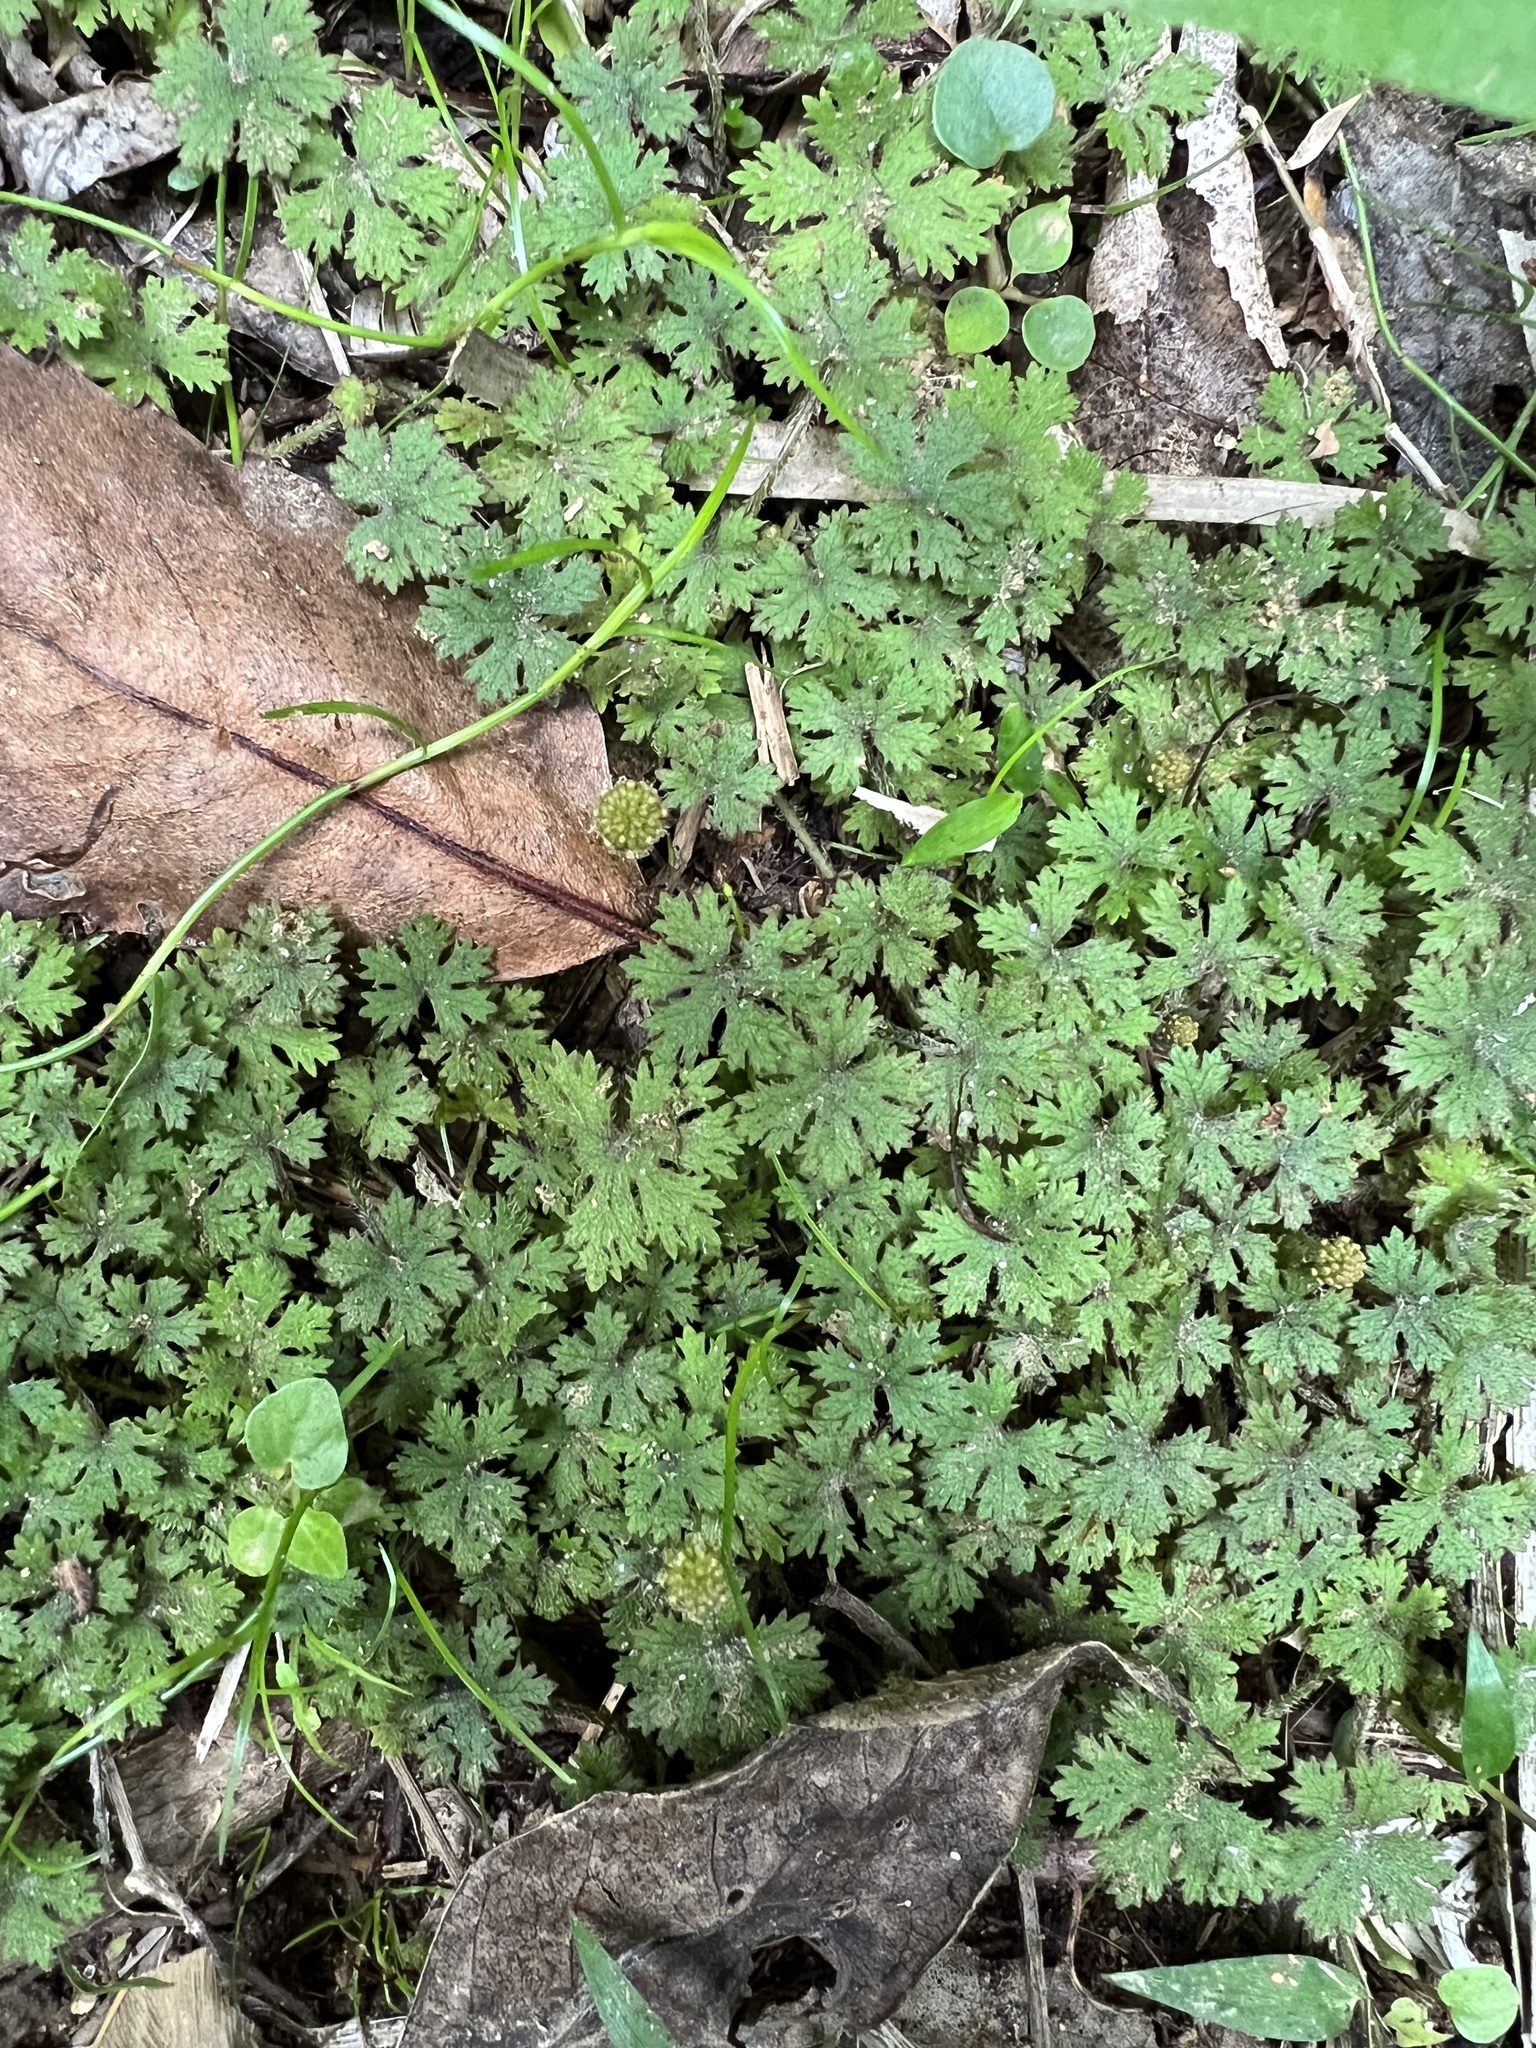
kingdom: Plantae
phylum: Tracheophyta
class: Magnoliopsida
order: Apiales
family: Araliaceae
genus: Hydrocotyle
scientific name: Hydrocotyle dissecta
